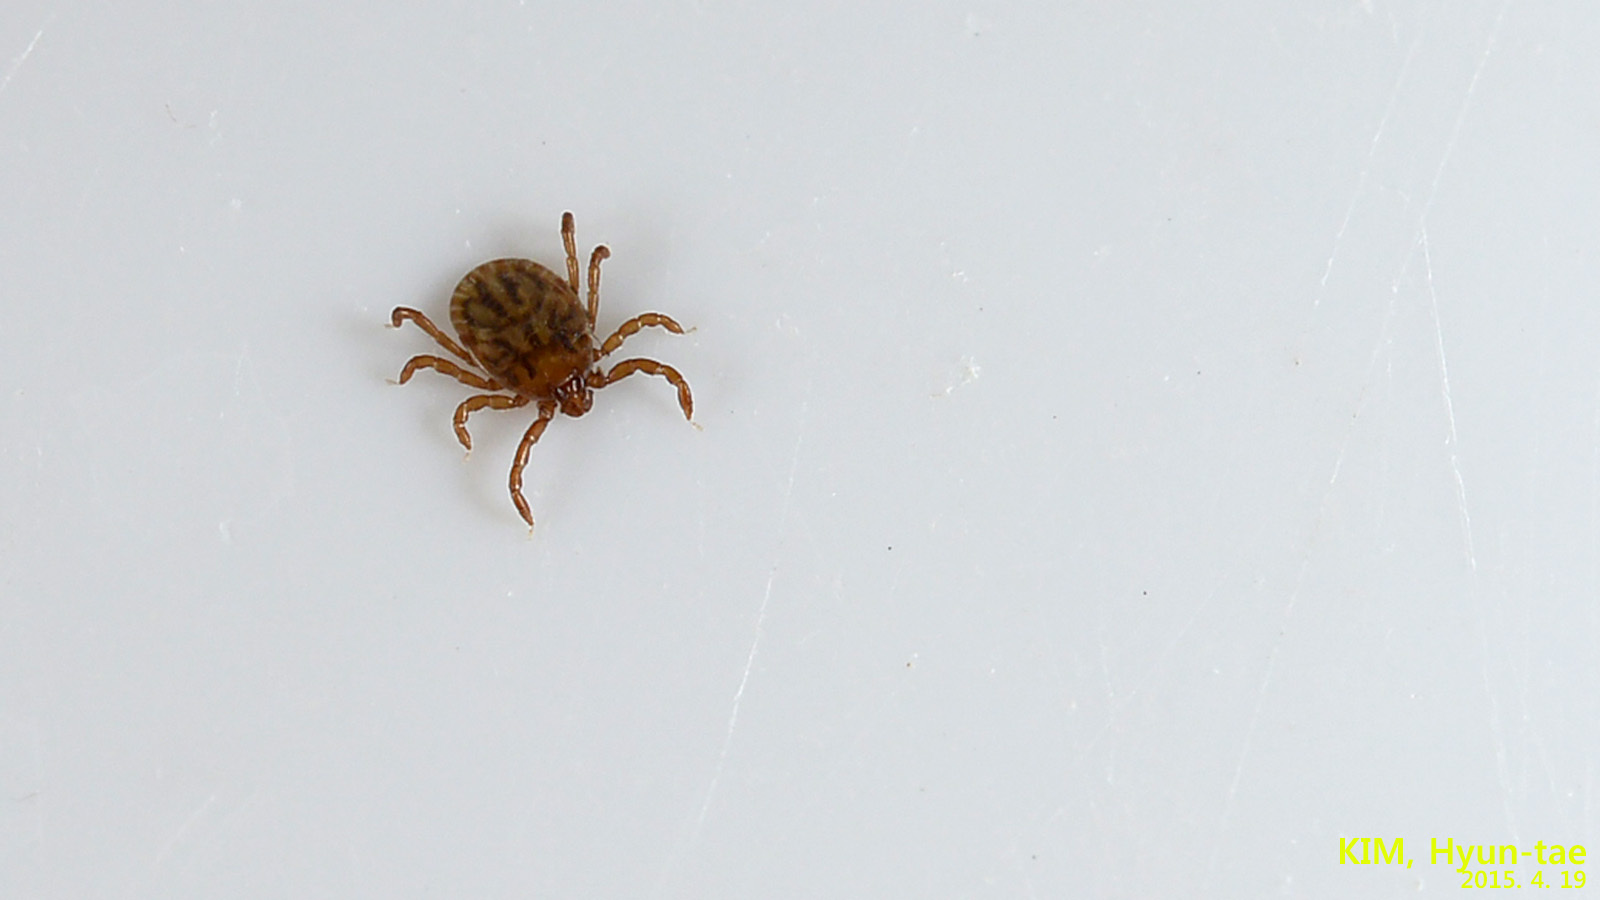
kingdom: Animalia
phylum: Arthropoda
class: Arachnida
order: Ixodida
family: Ixodidae
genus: Haemaphysalis
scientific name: Haemaphysalis longicornis
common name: Bush tick
